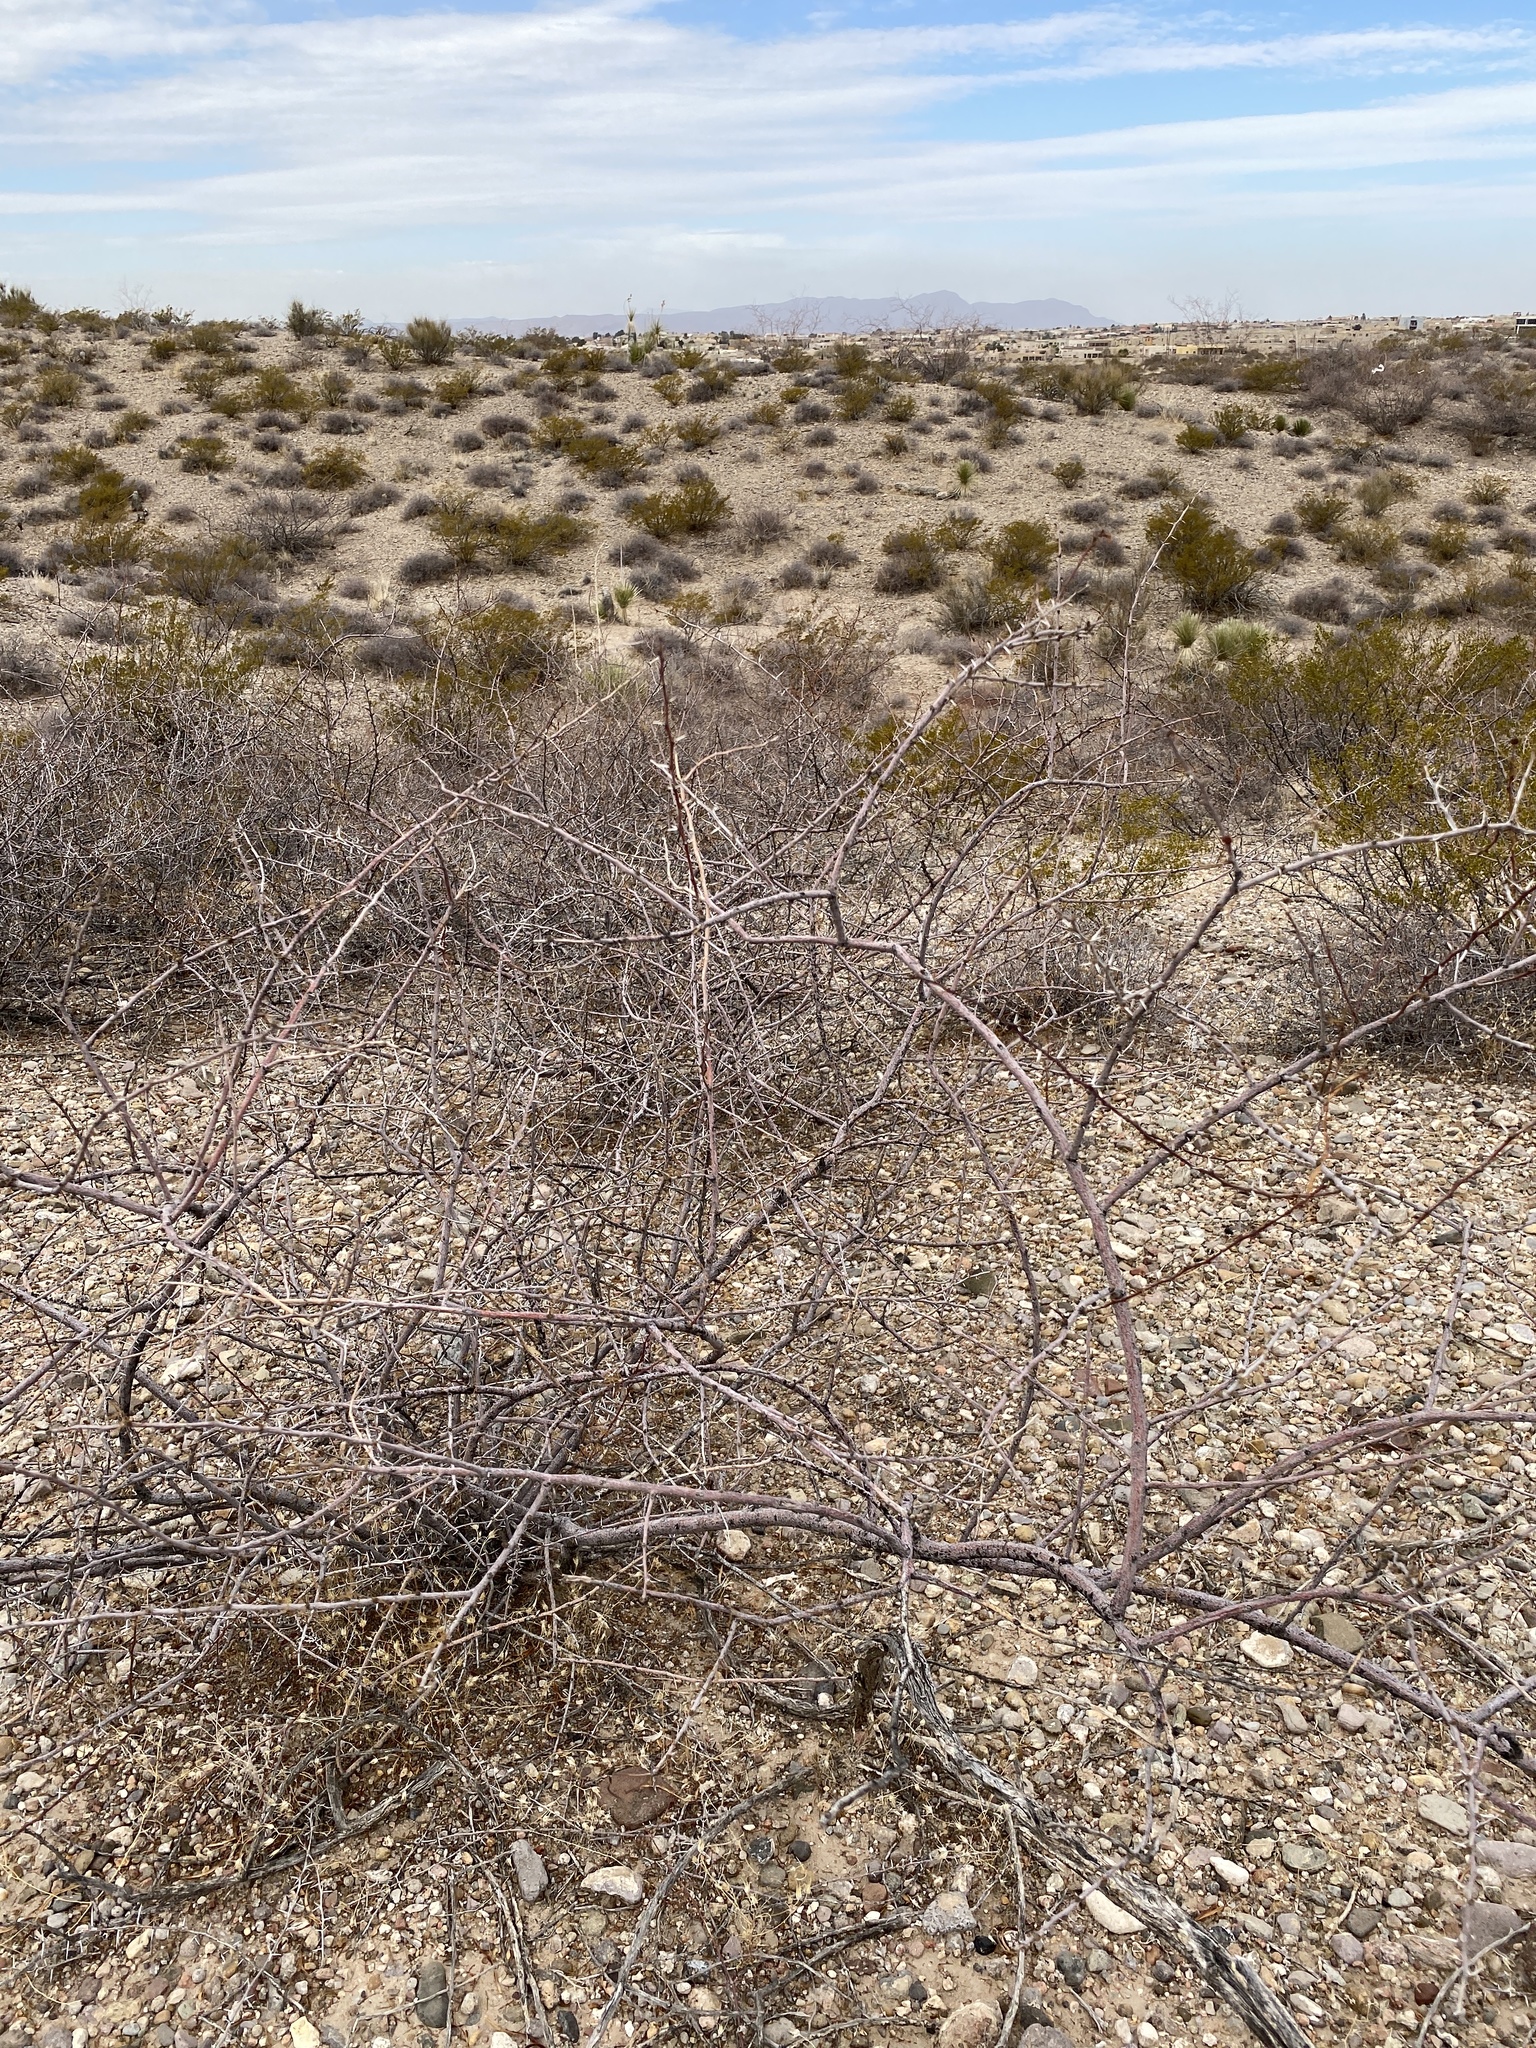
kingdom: Plantae
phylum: Tracheophyta
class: Magnoliopsida
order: Fabales
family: Fabaceae
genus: Vachellia
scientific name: Vachellia constricta
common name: Mescat acacia
